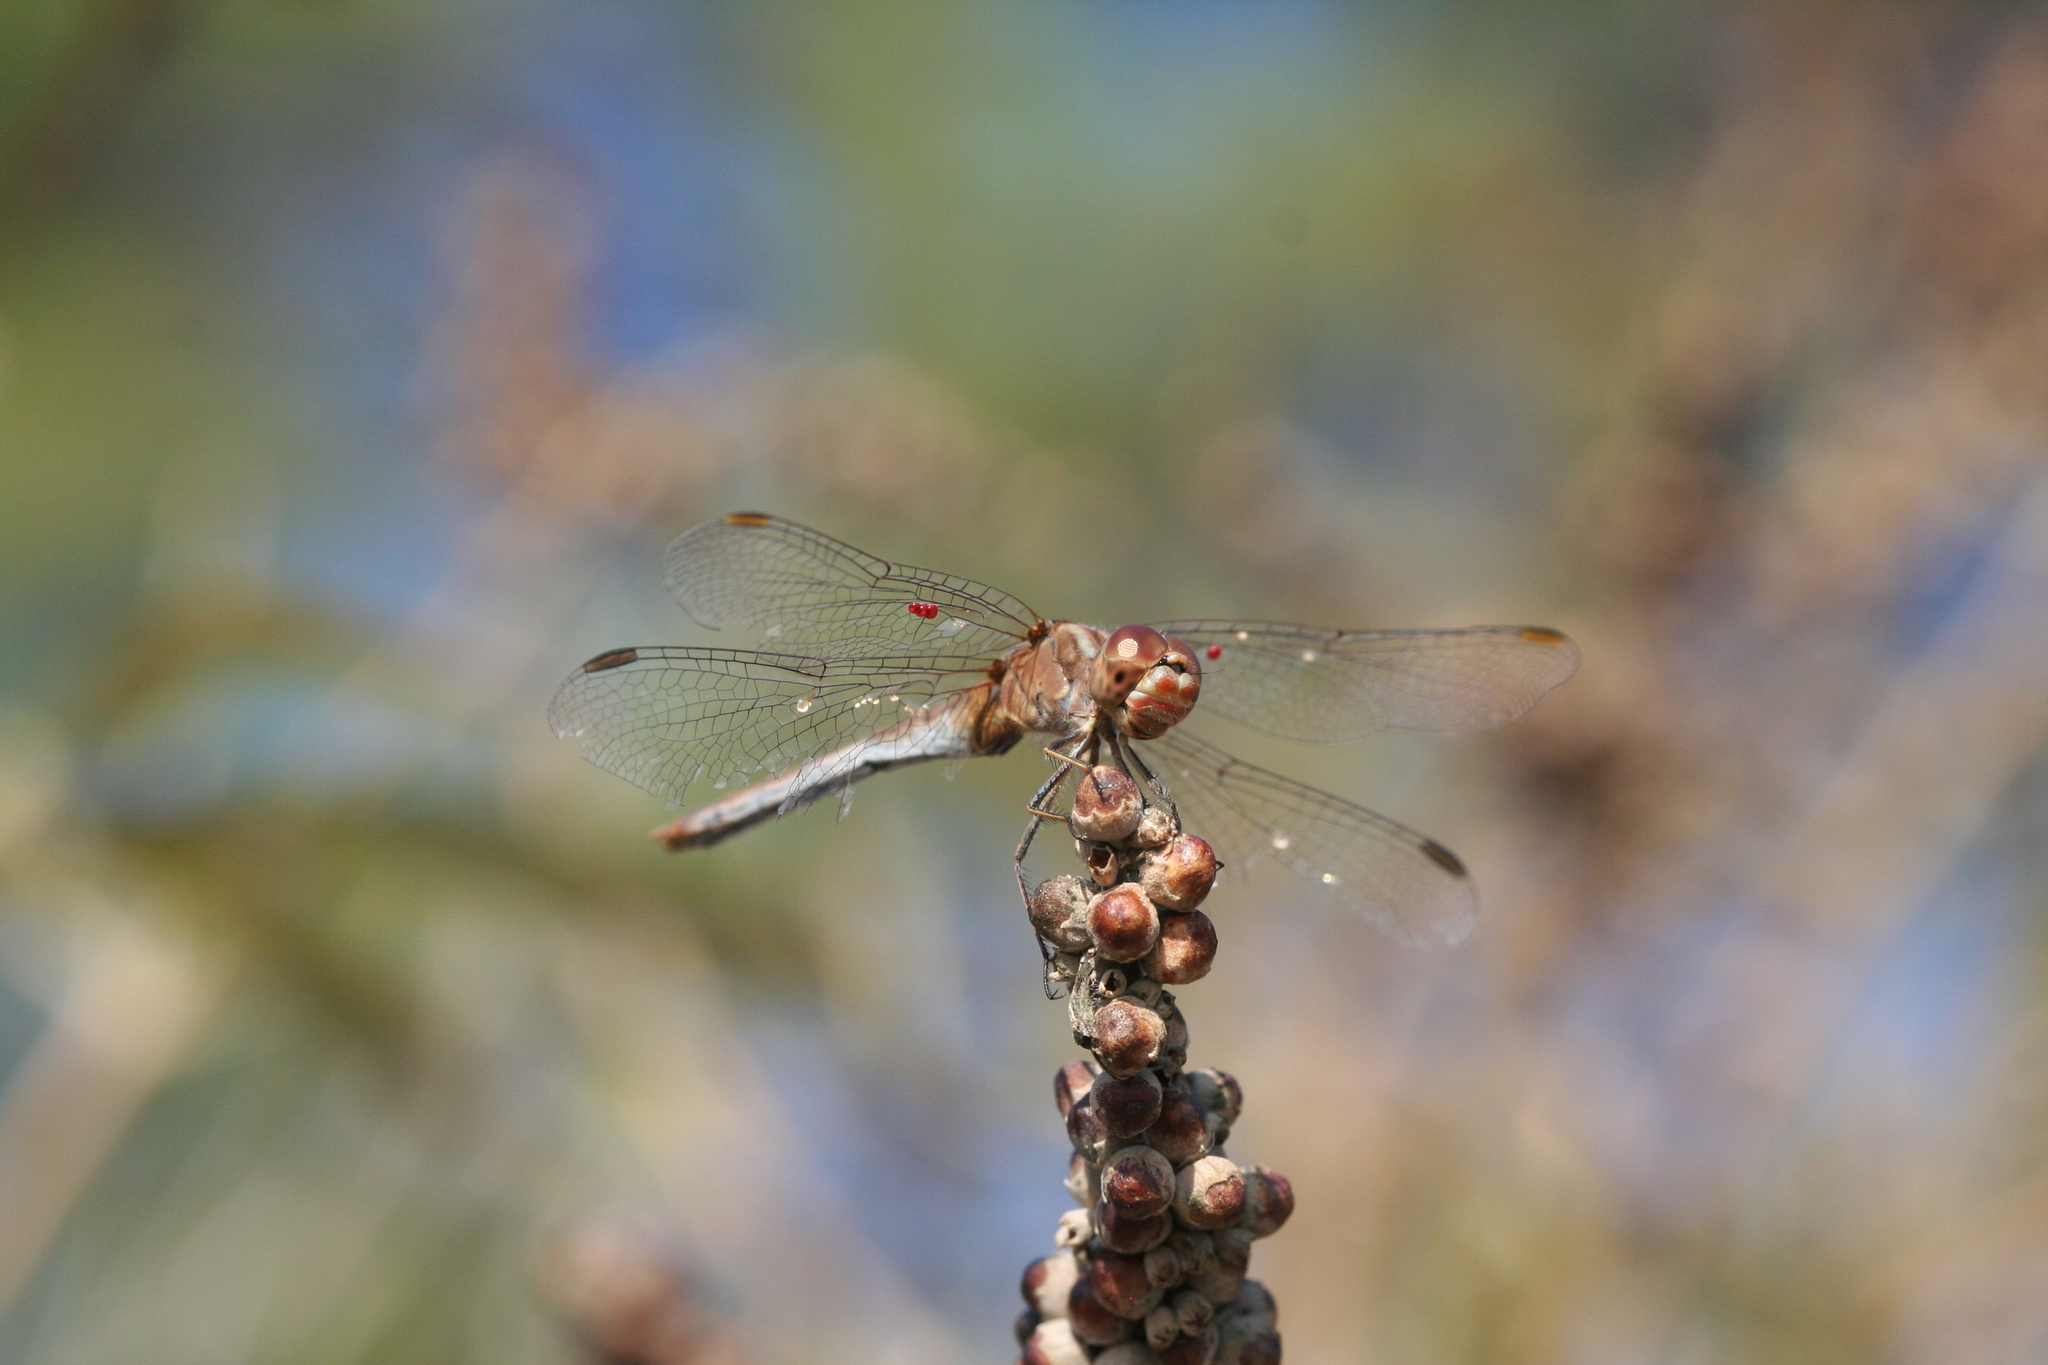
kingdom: Animalia
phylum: Arthropoda
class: Insecta
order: Odonata
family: Libellulidae
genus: Sympetrum
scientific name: Sympetrum meridionale
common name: Southern darter
